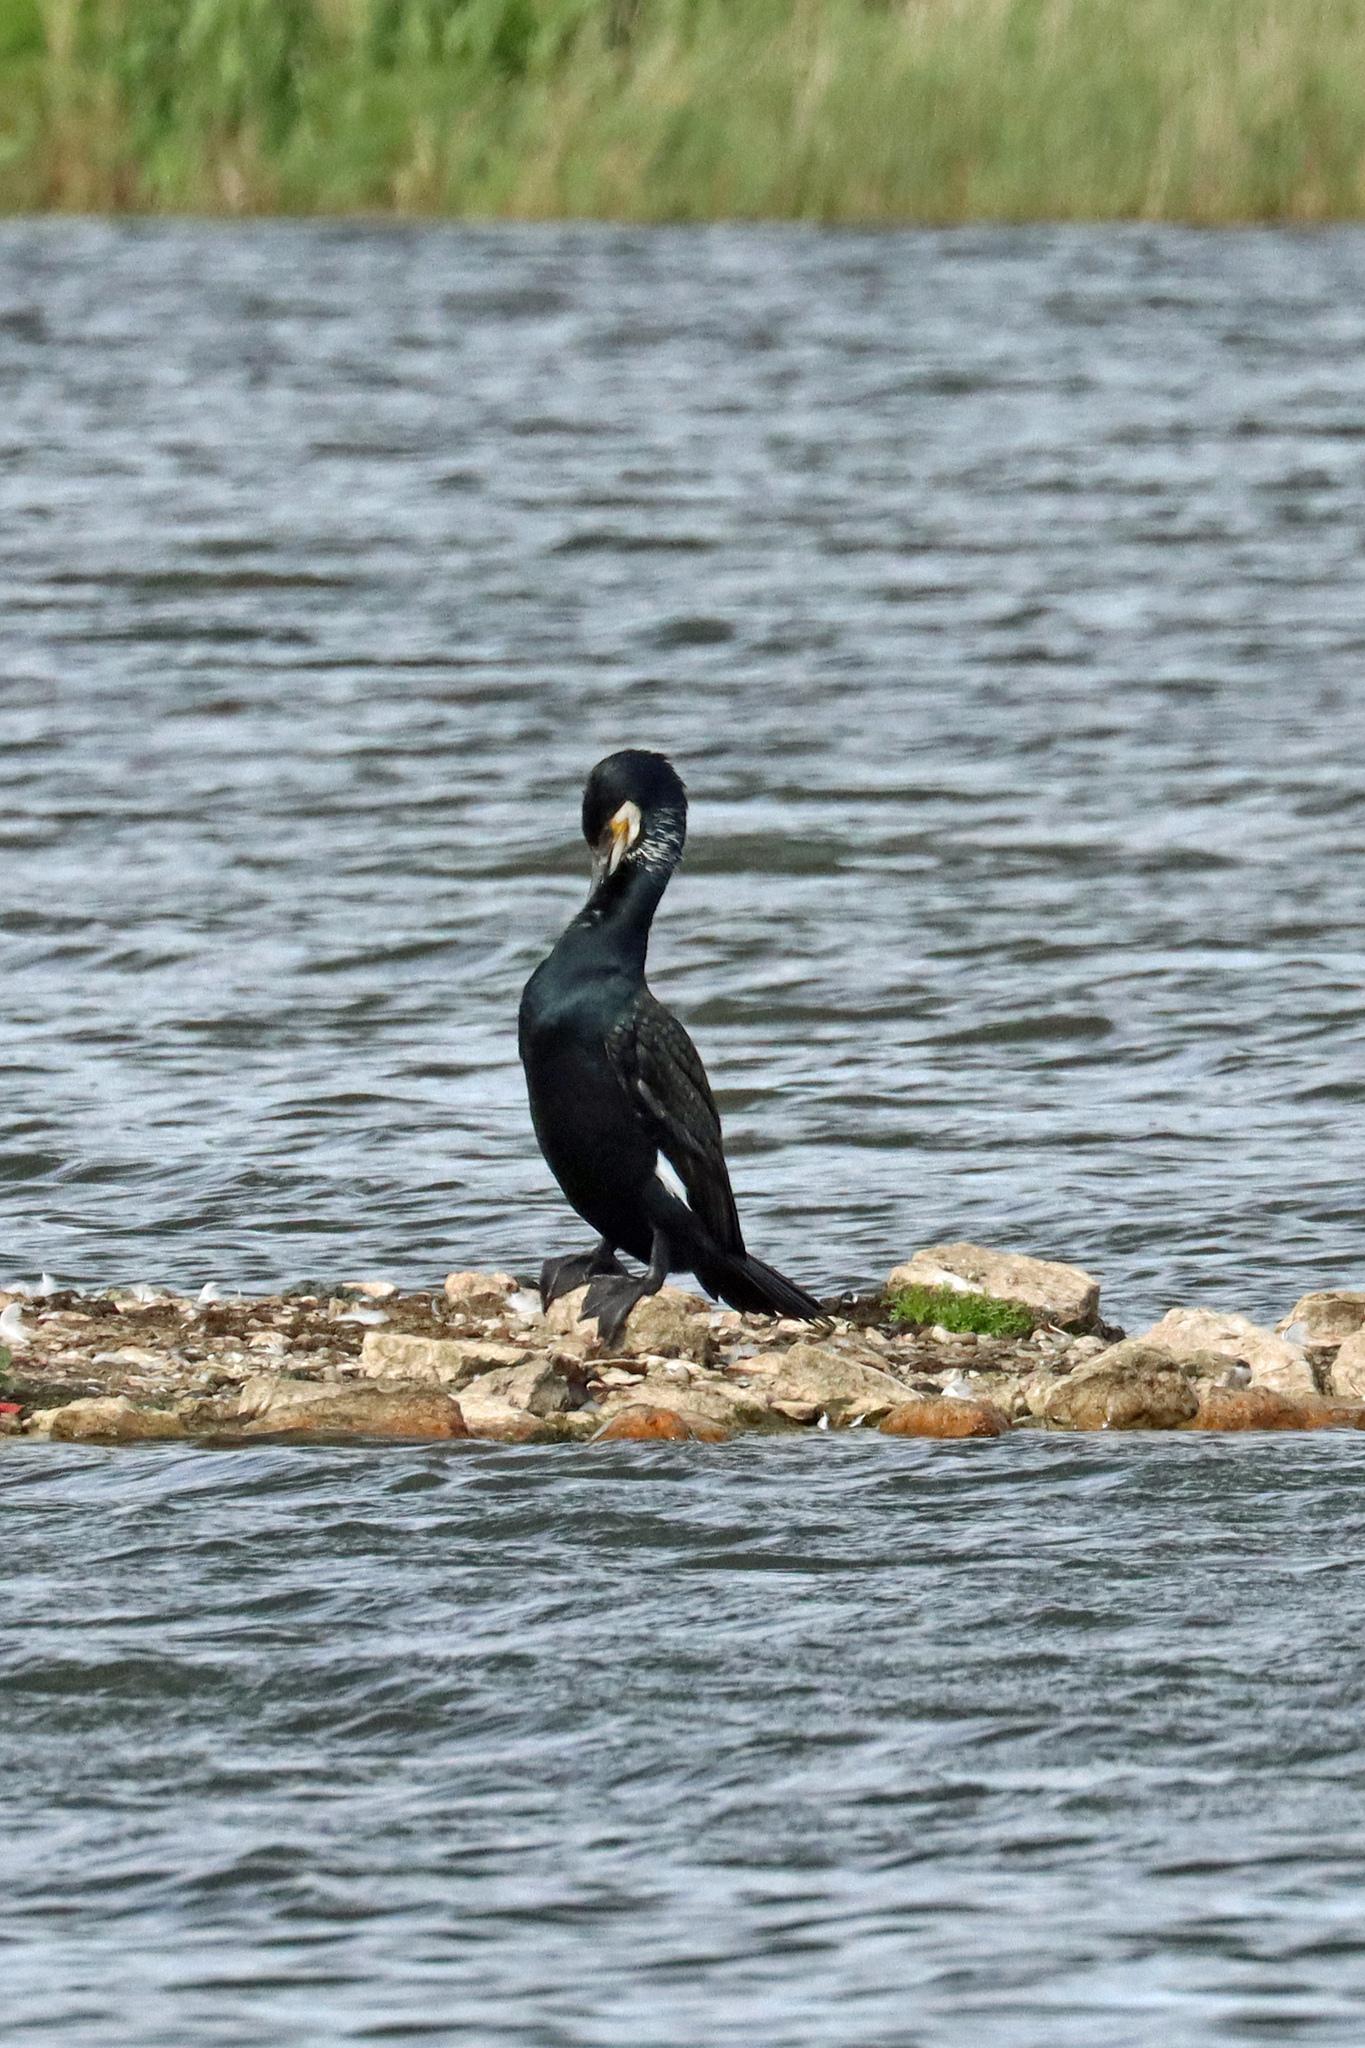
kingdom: Animalia
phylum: Chordata
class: Aves
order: Suliformes
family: Phalacrocoracidae
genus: Phalacrocorax
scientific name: Phalacrocorax carbo
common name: Great cormorant
